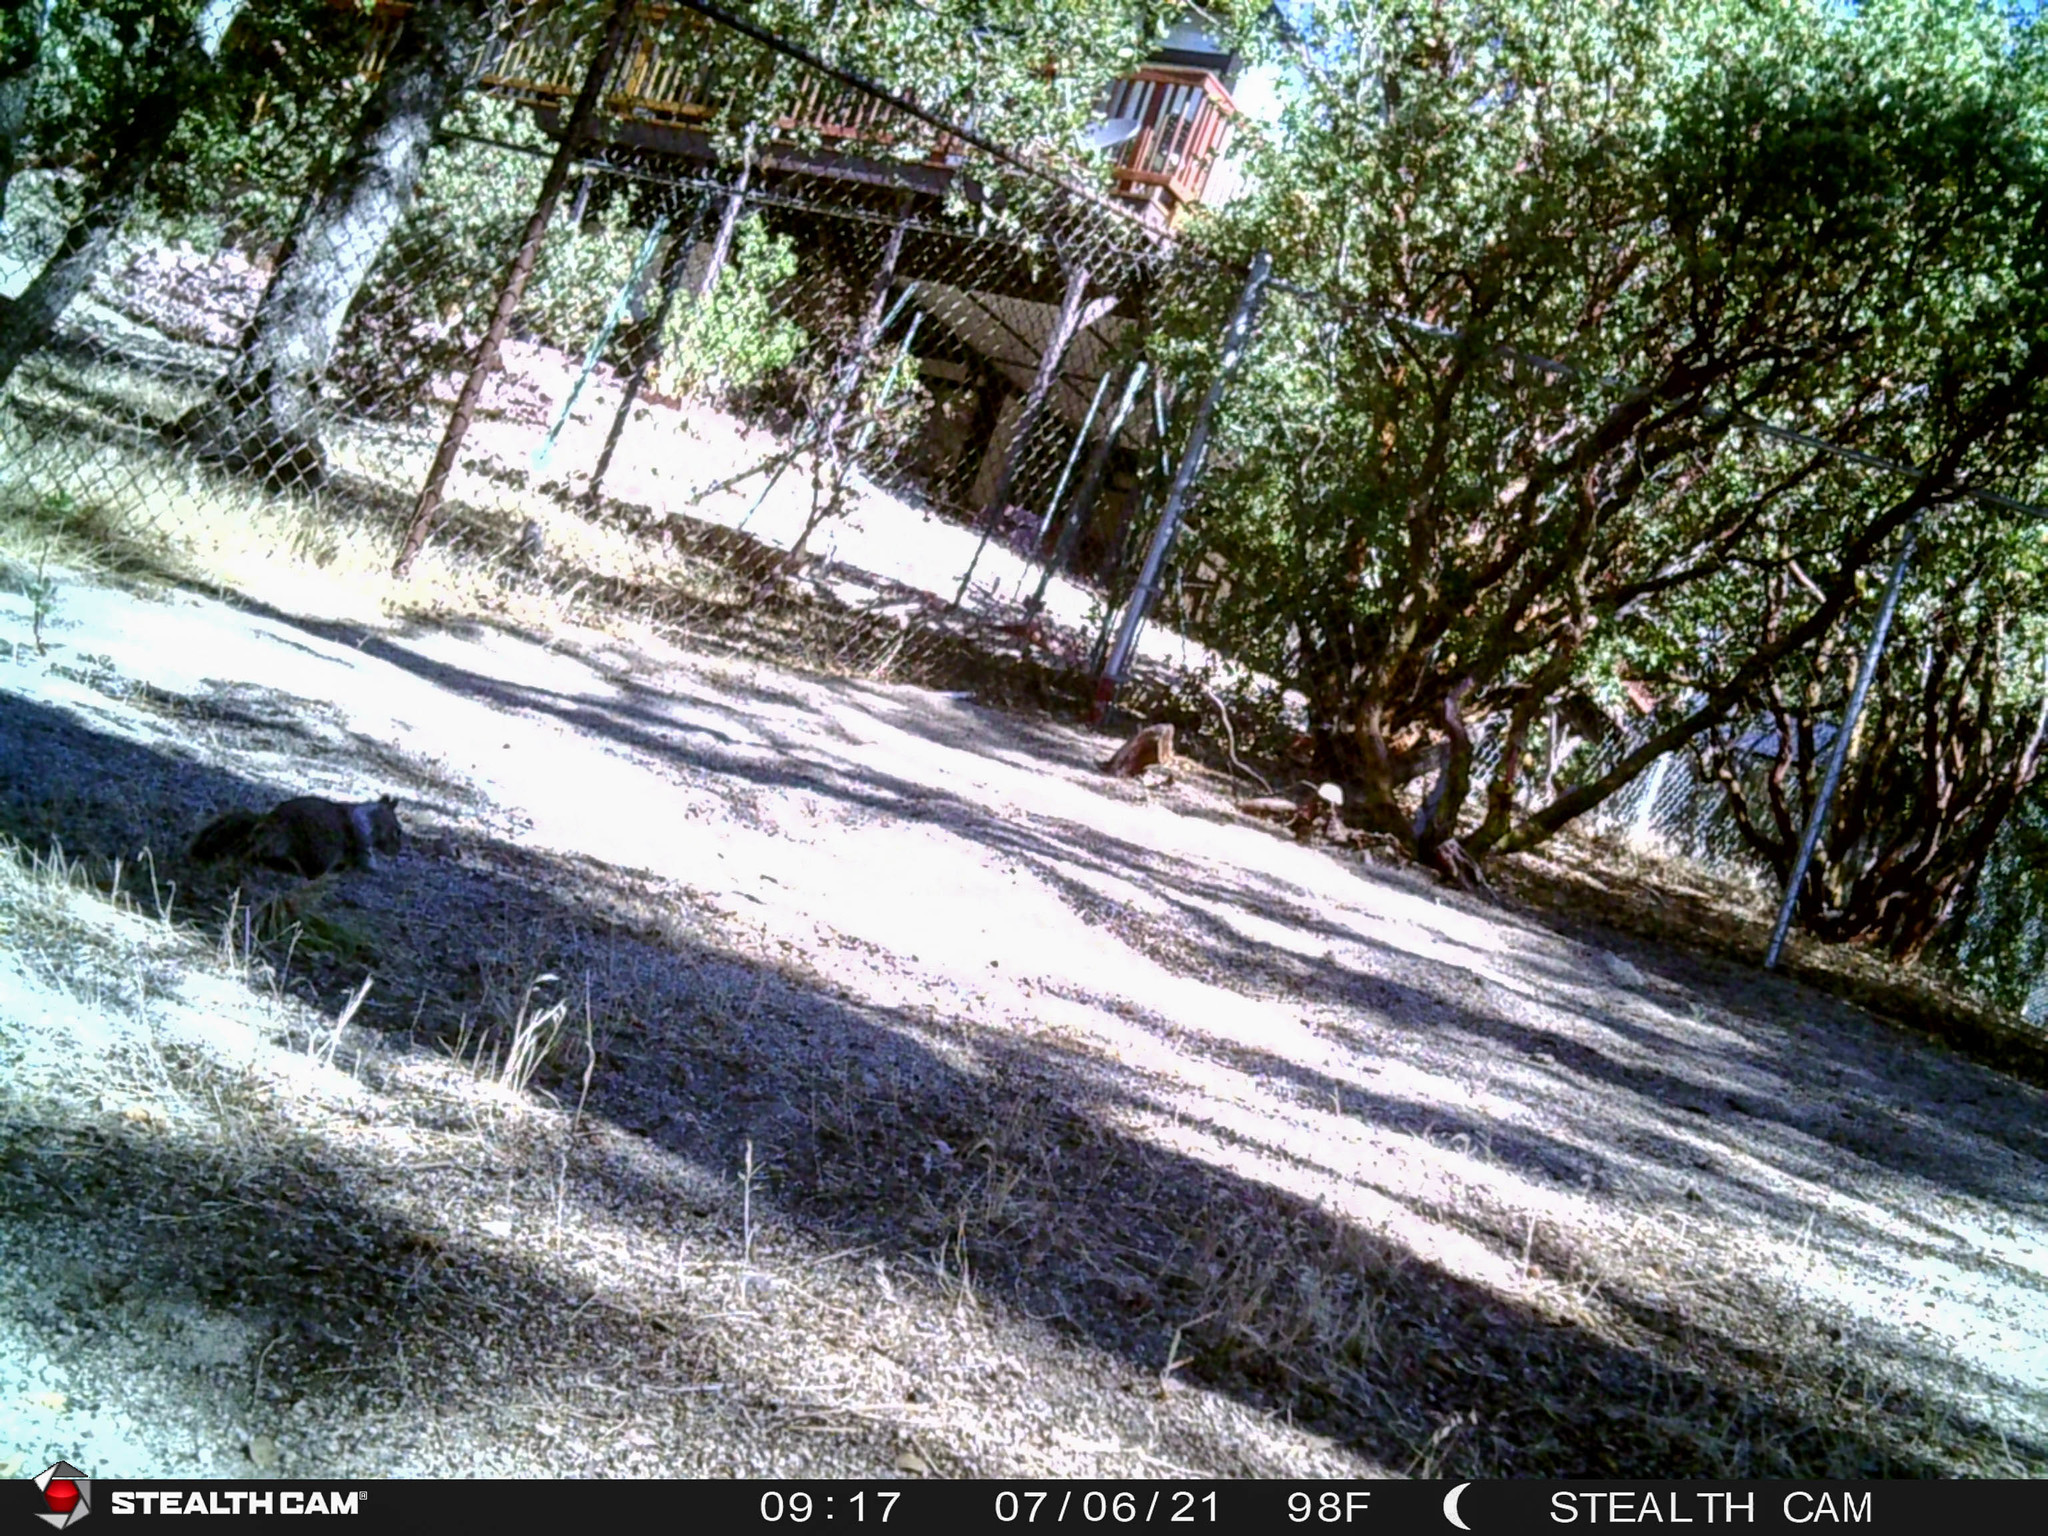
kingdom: Animalia
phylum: Chordata
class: Mammalia
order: Rodentia
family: Sciuridae
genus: Otospermophilus
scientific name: Otospermophilus beecheyi
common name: California ground squirrel
